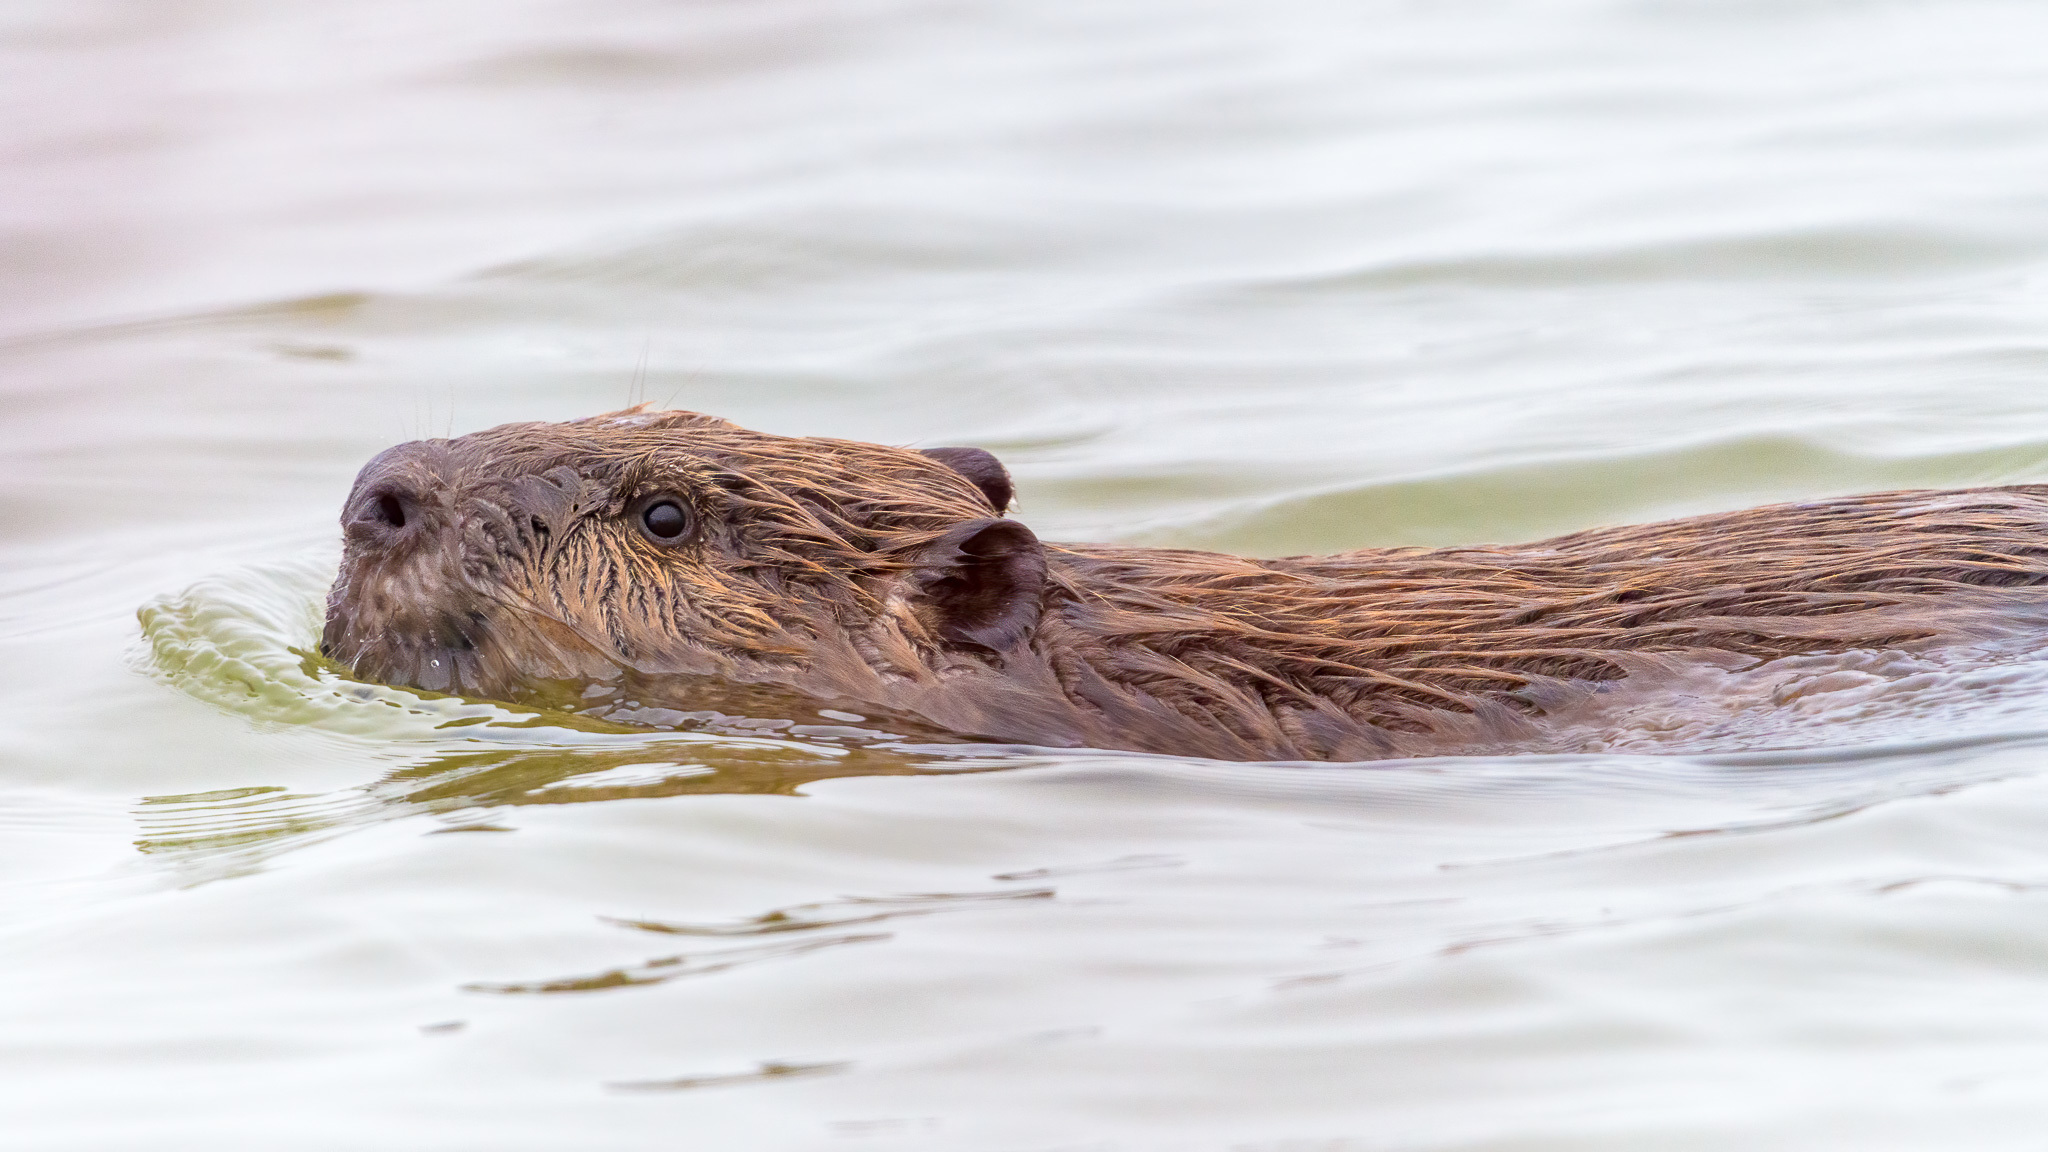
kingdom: Animalia
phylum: Chordata
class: Mammalia
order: Rodentia
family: Castoridae
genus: Castor
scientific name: Castor canadensis
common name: American beaver
